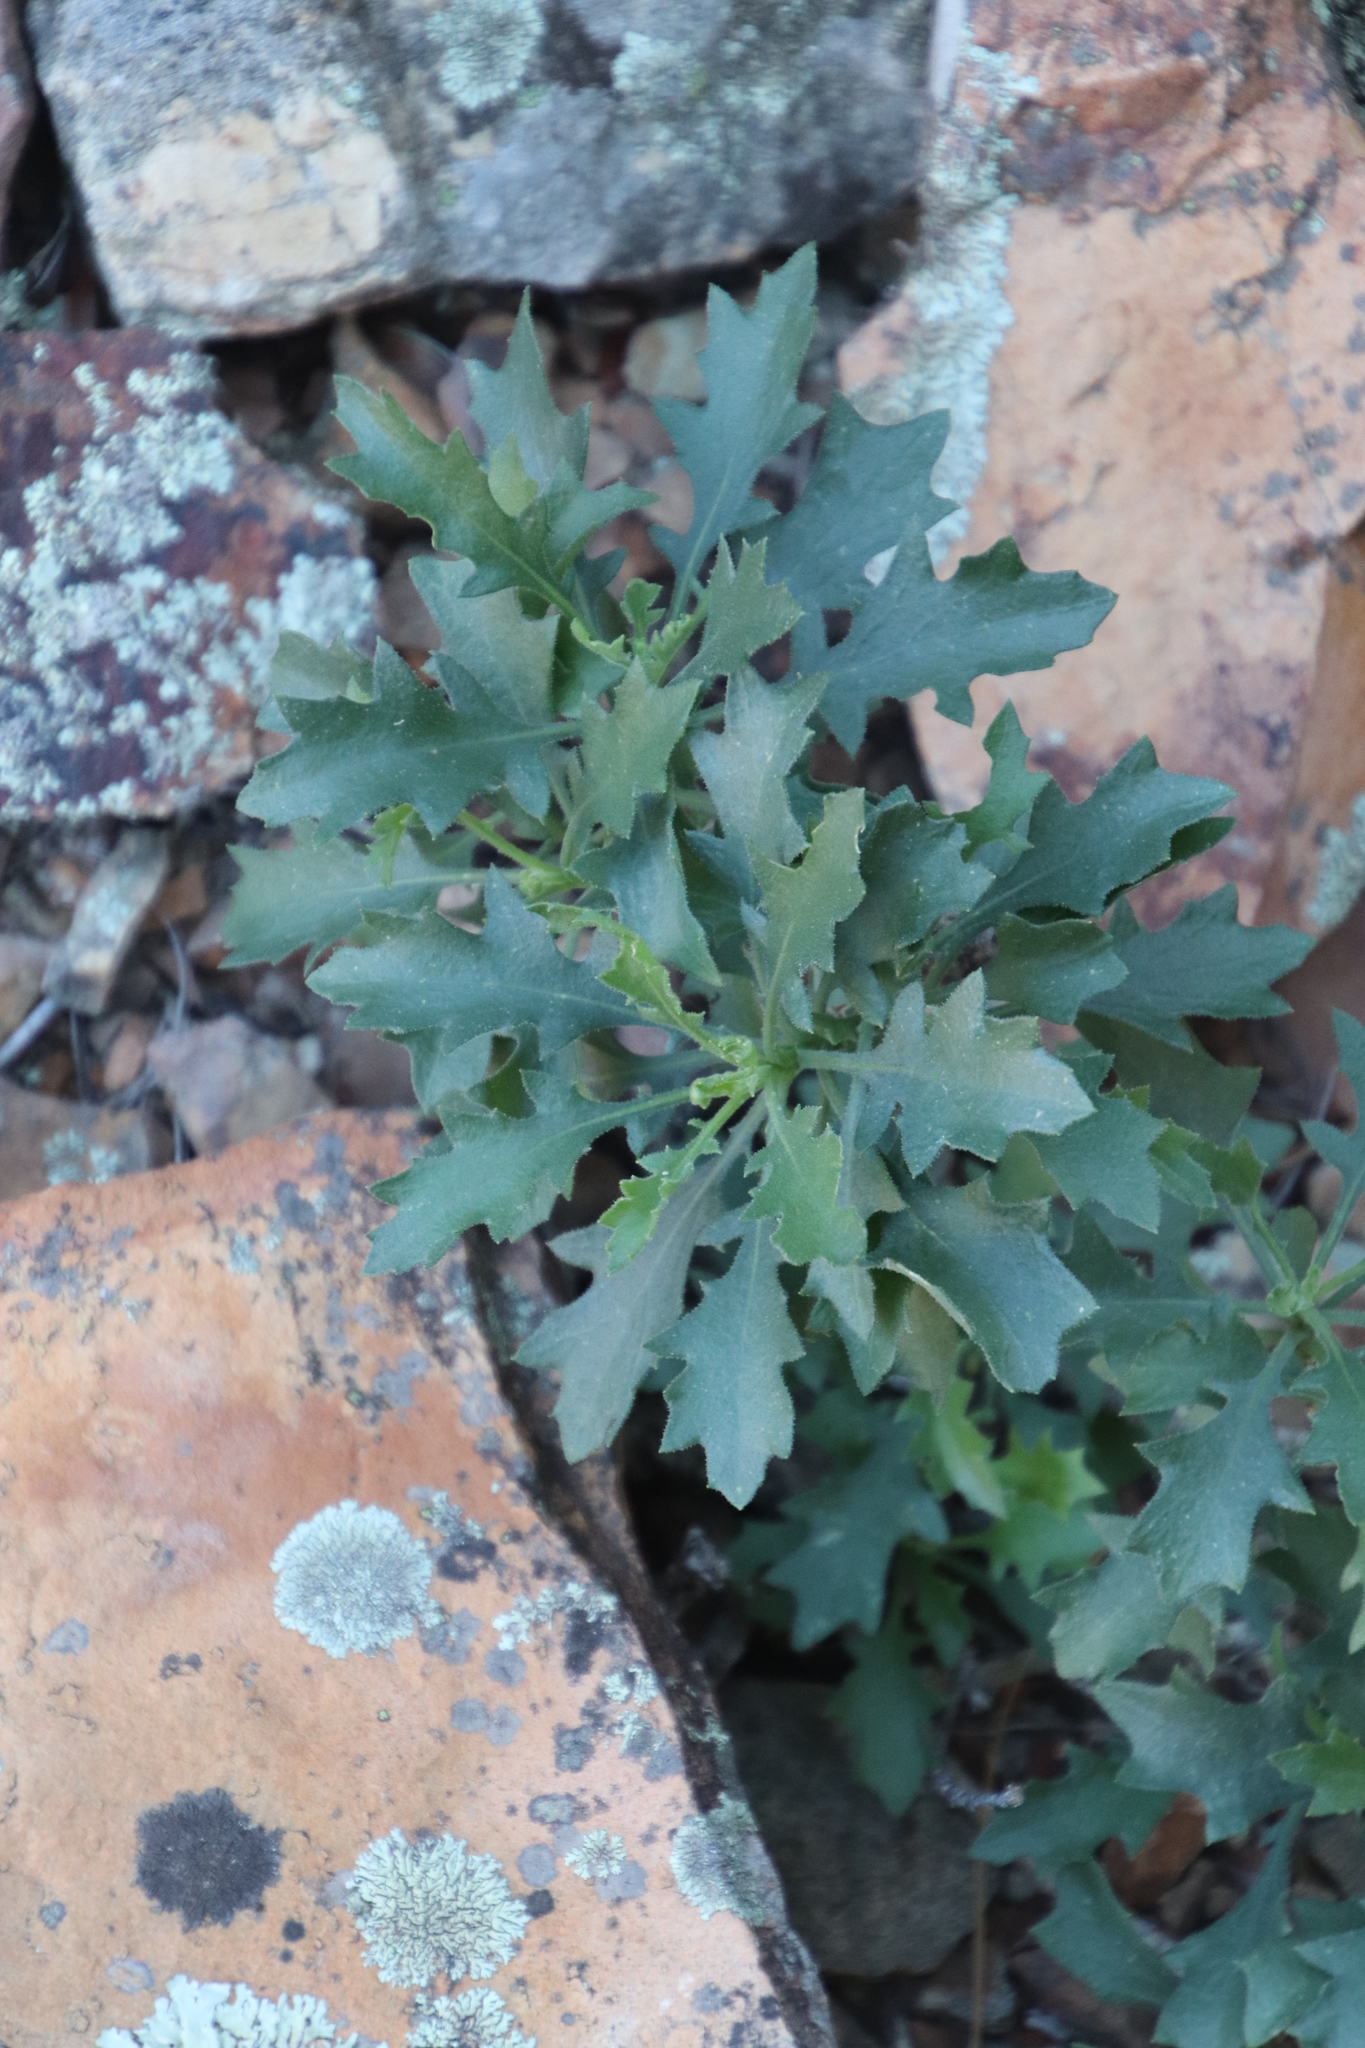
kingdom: Plantae
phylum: Tracheophyta
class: Magnoliopsida
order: Fagales
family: Myricaceae
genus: Morella
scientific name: Morella quercifolia
